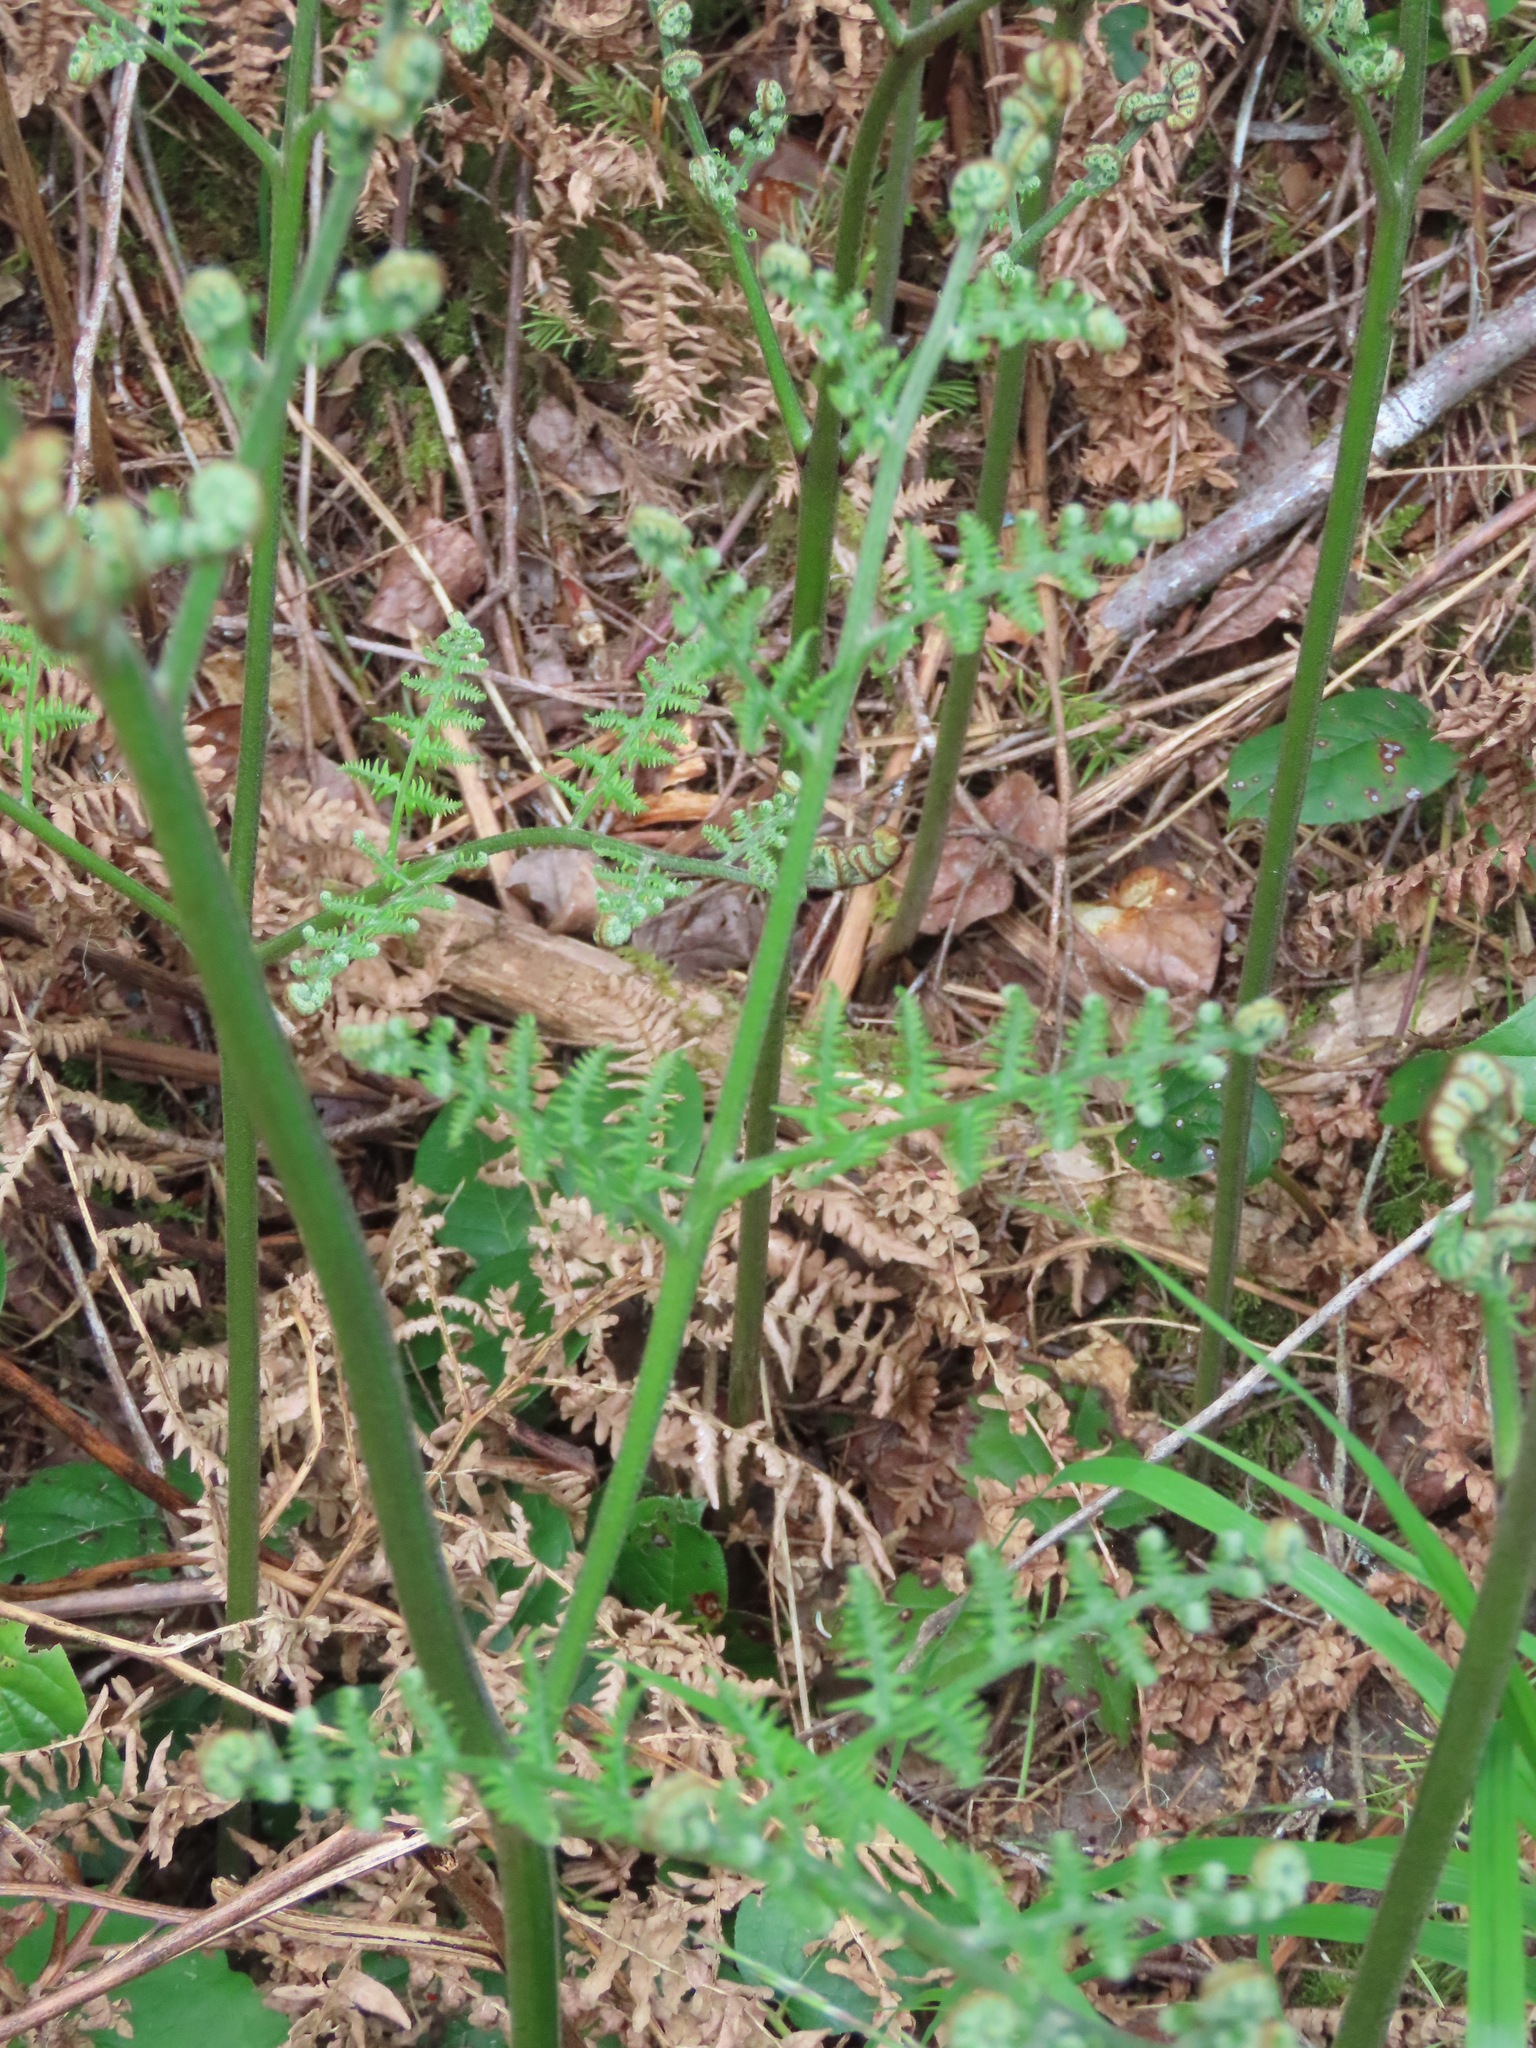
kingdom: Plantae
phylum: Tracheophyta
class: Polypodiopsida
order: Polypodiales
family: Dennstaedtiaceae
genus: Pteridium
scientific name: Pteridium aquilinum
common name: Bracken
